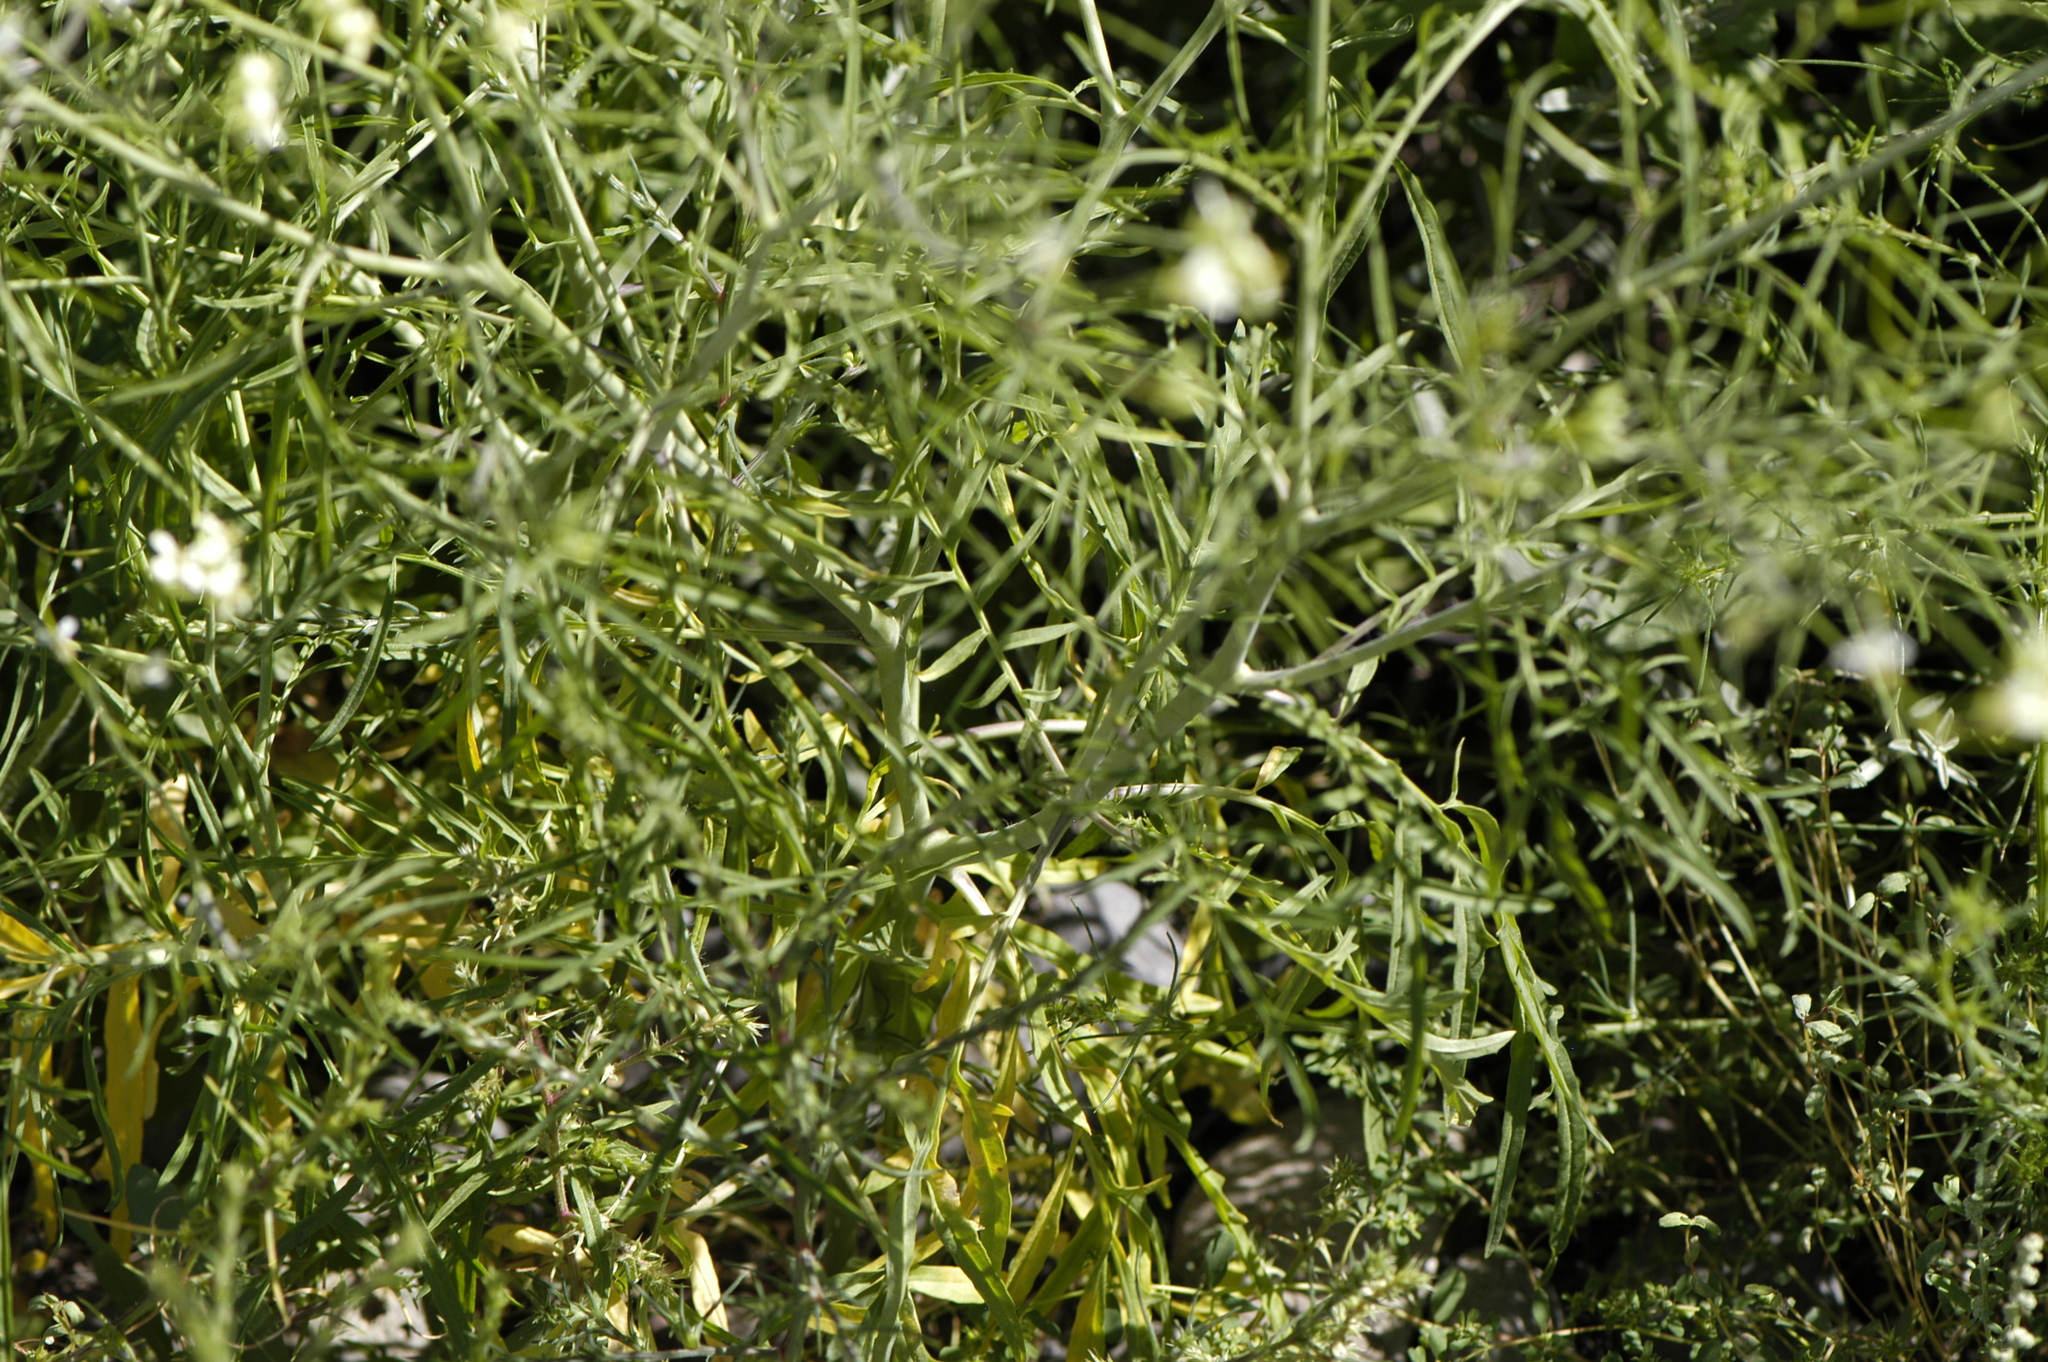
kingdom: Plantae
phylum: Tracheophyta
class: Magnoliopsida
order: Brassicales
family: Brassicaceae
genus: Sisymbrium
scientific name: Sisymbrium altissimum
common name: Tall rocket
